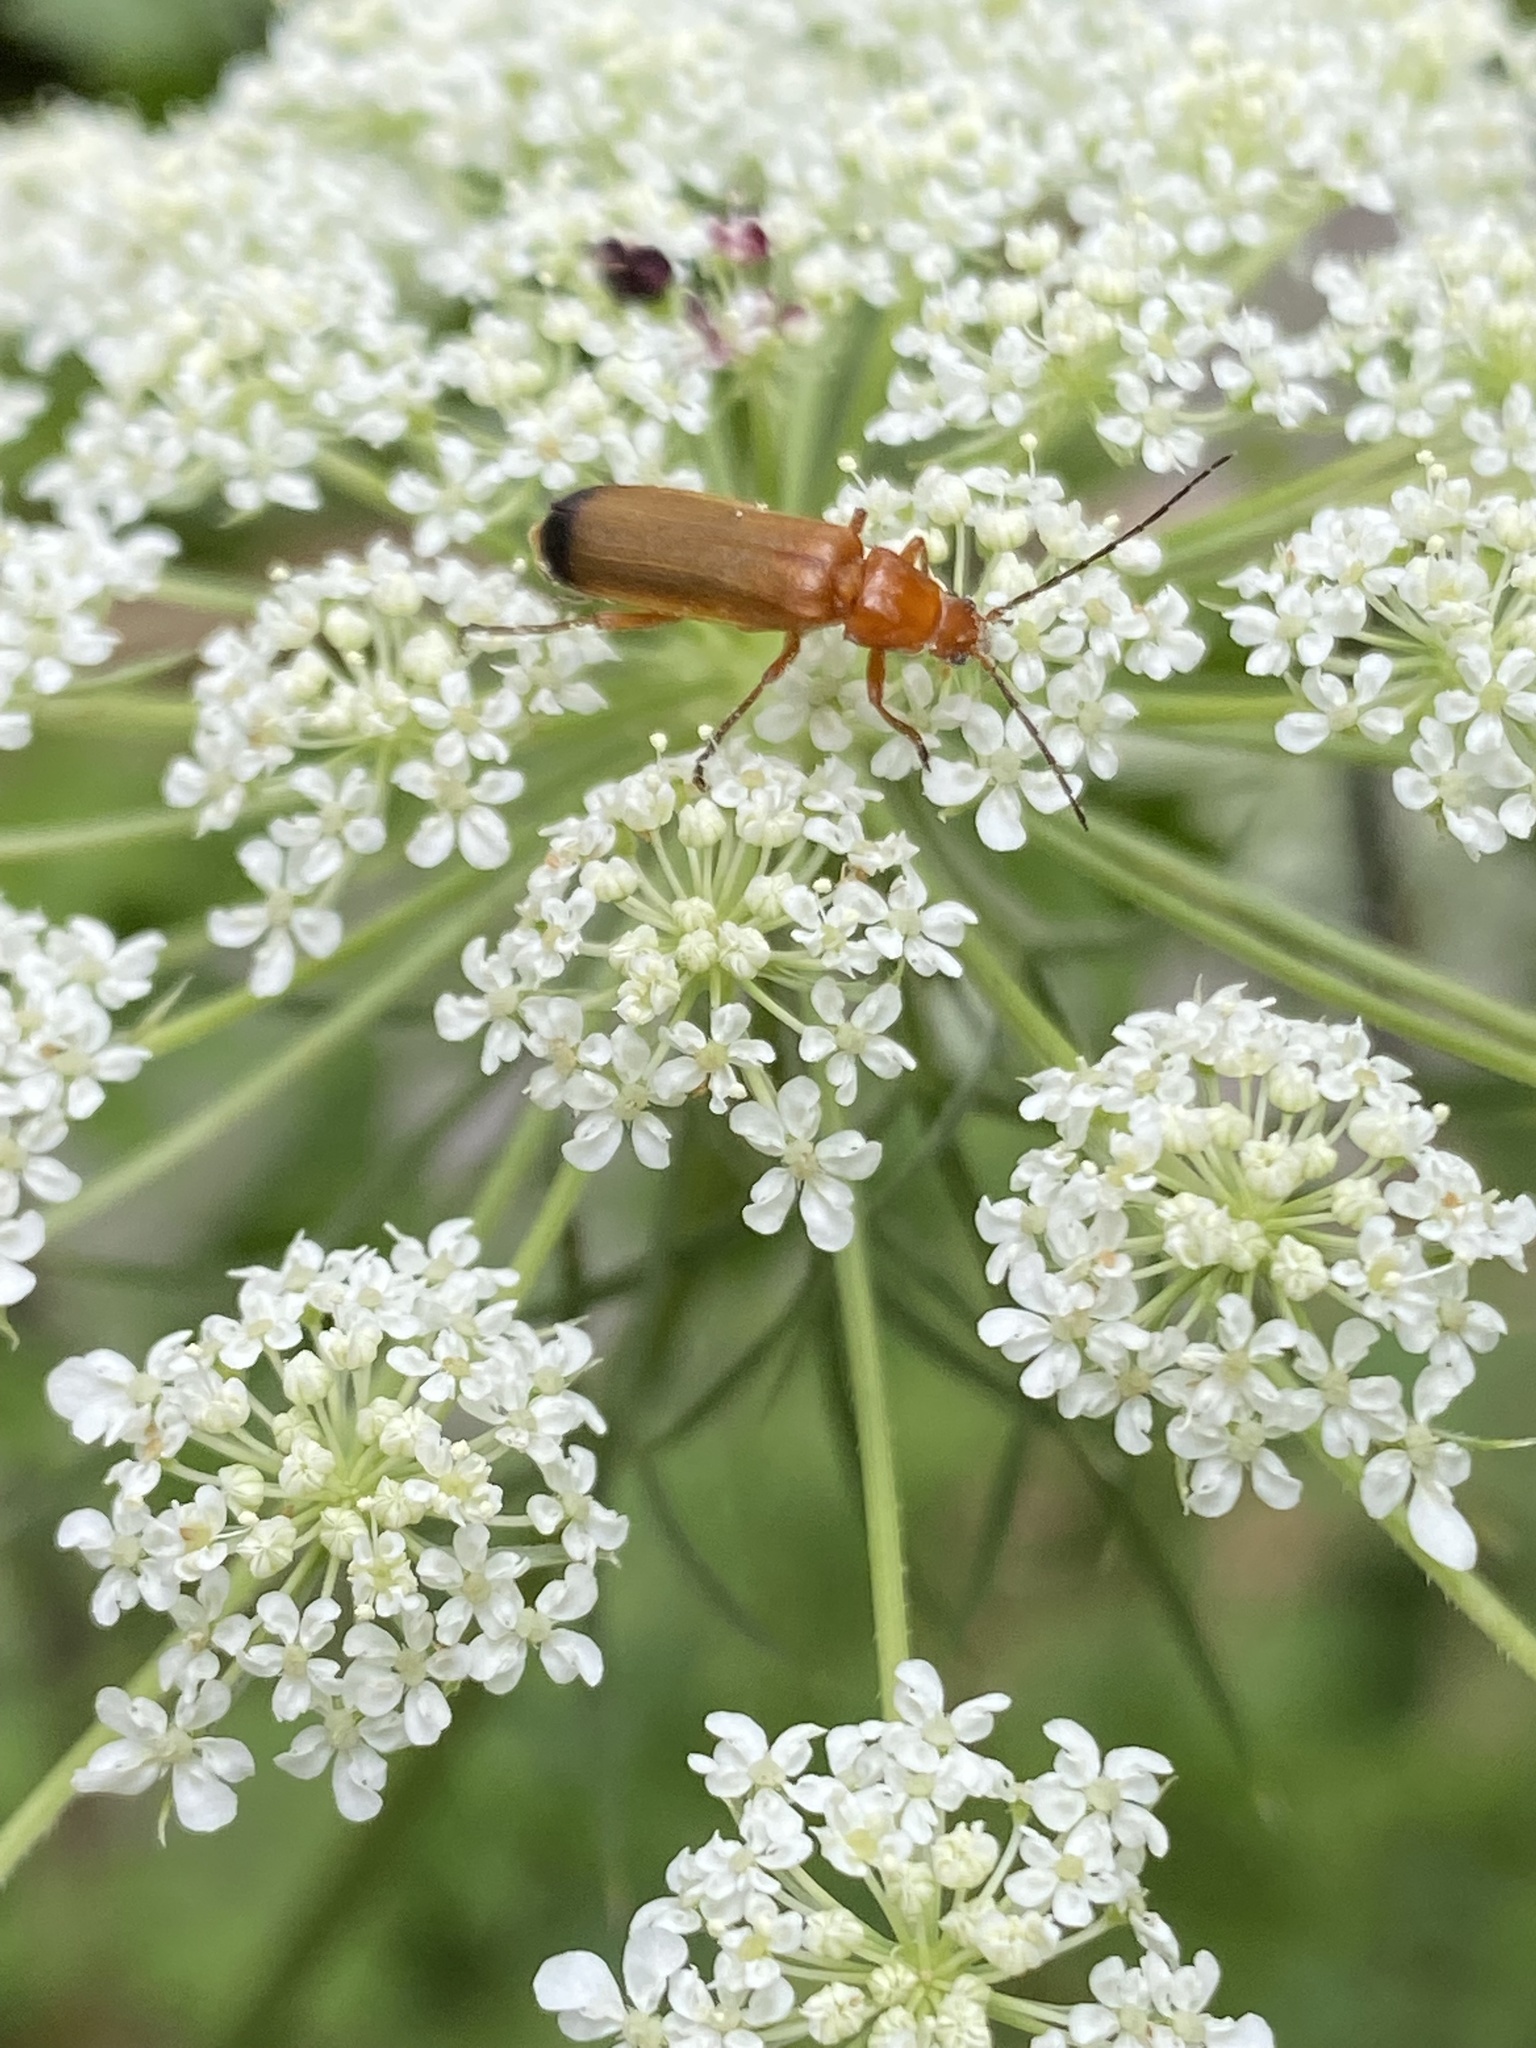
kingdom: Animalia
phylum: Arthropoda
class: Insecta
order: Coleoptera
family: Cantharidae
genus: Rhagonycha
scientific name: Rhagonycha fulva
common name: Common red soldier beetle
